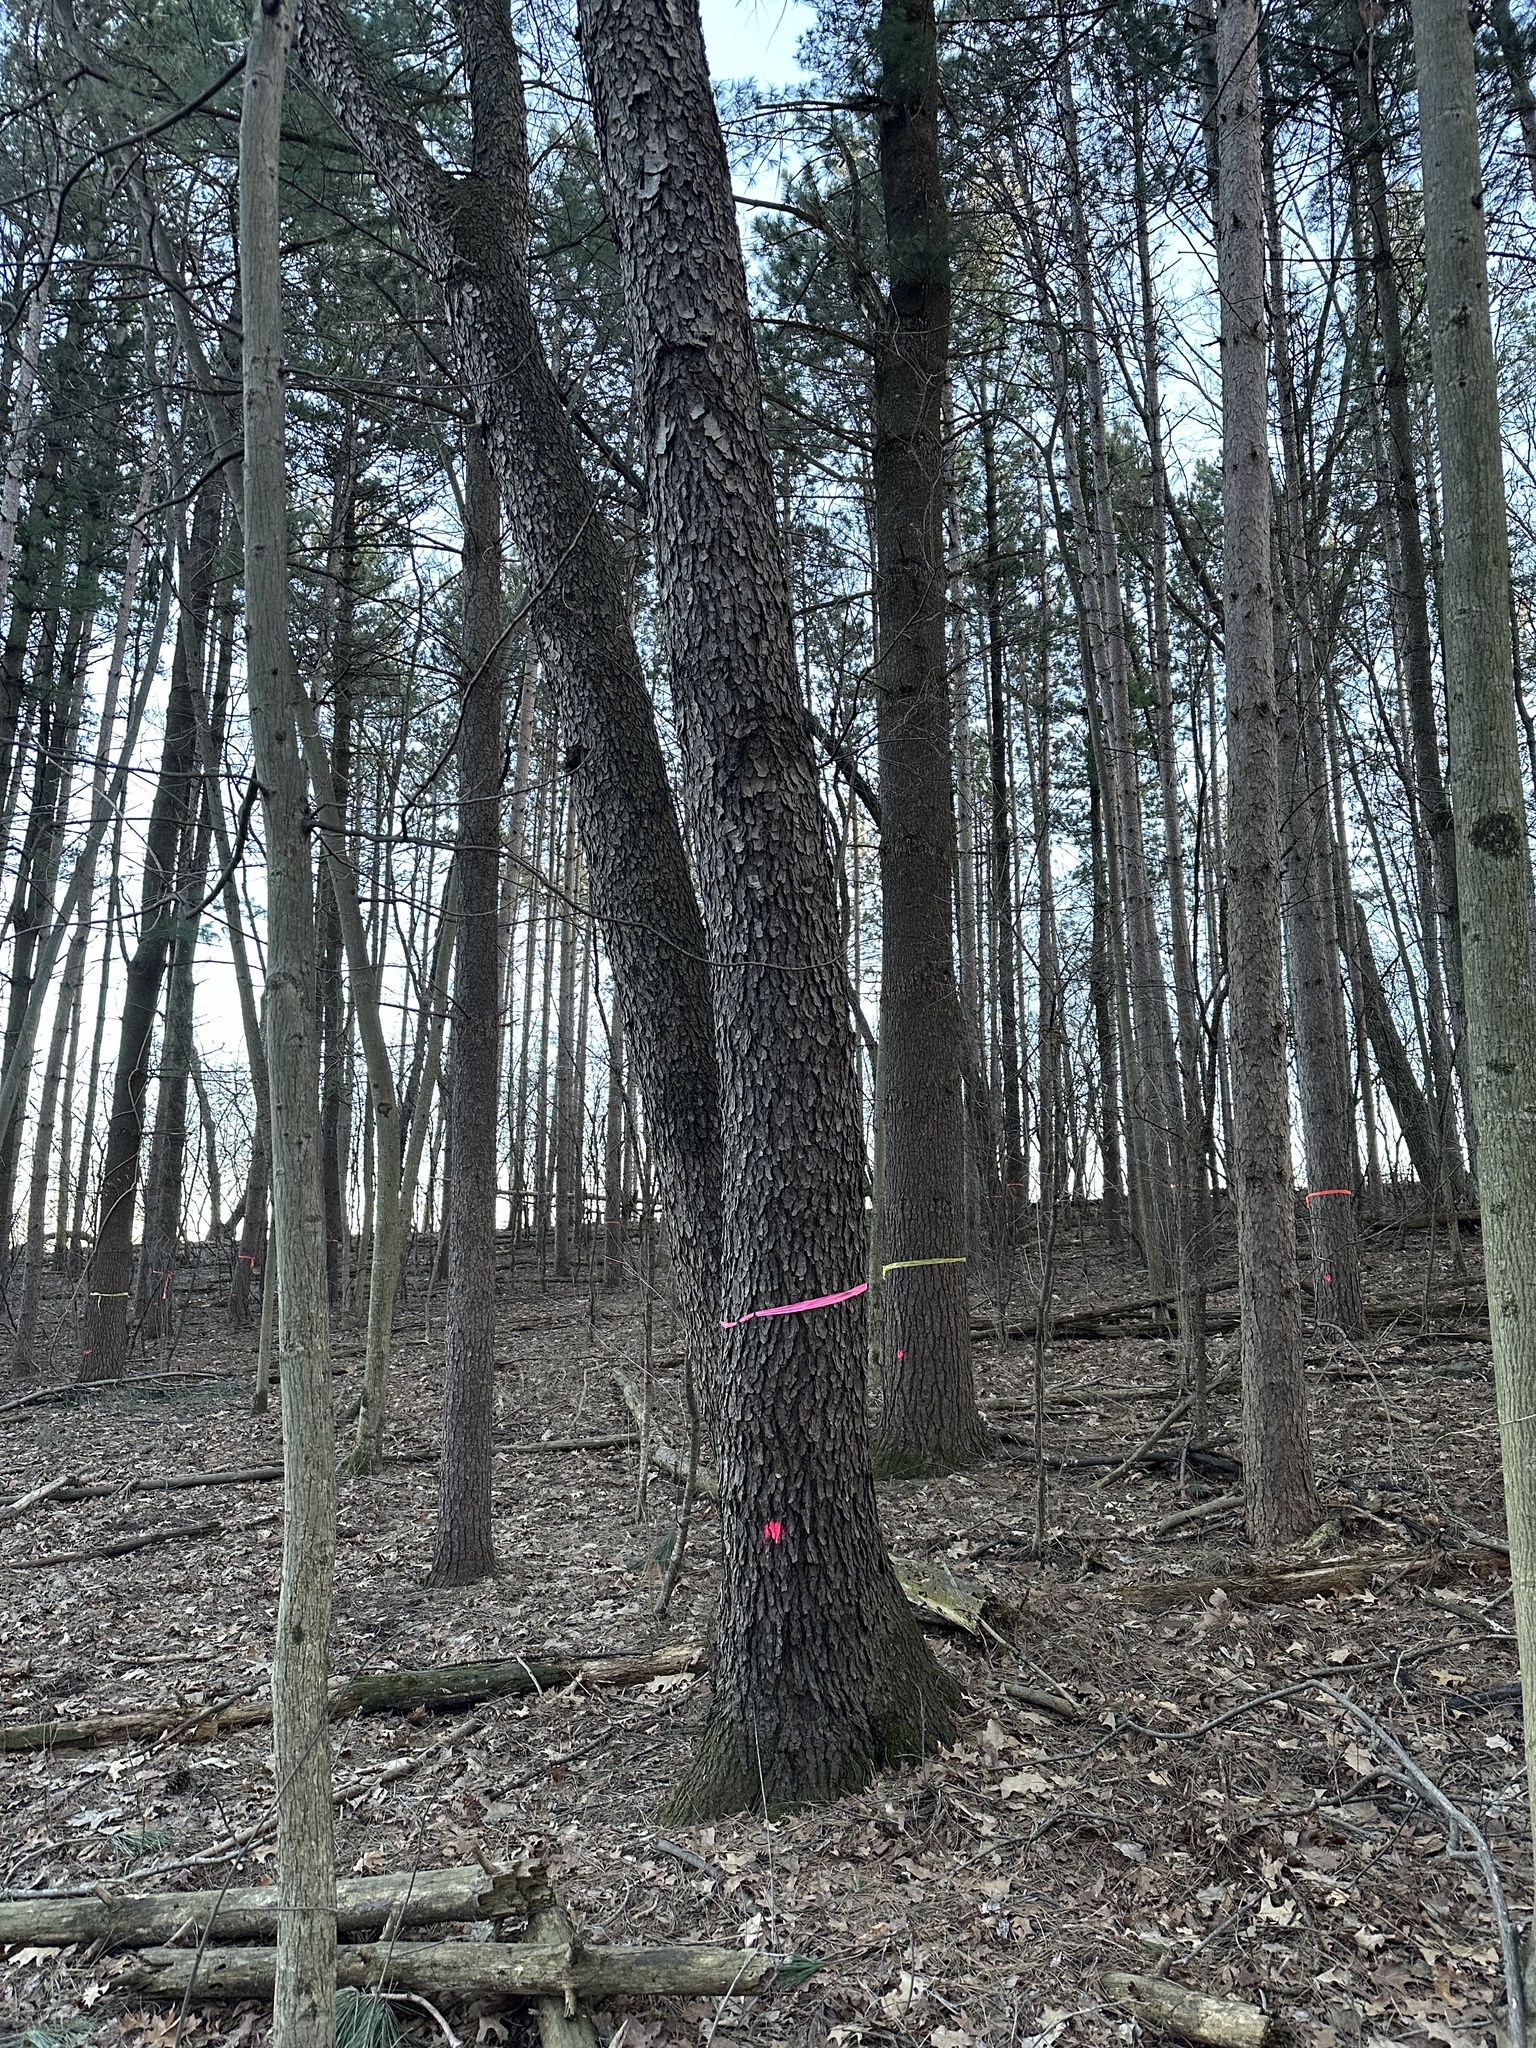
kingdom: Fungi
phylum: Ascomycota
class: Dothideomycetes
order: Venturiales
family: Venturiaceae
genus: Apiosporina
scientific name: Apiosporina morbosa
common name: Black knot
